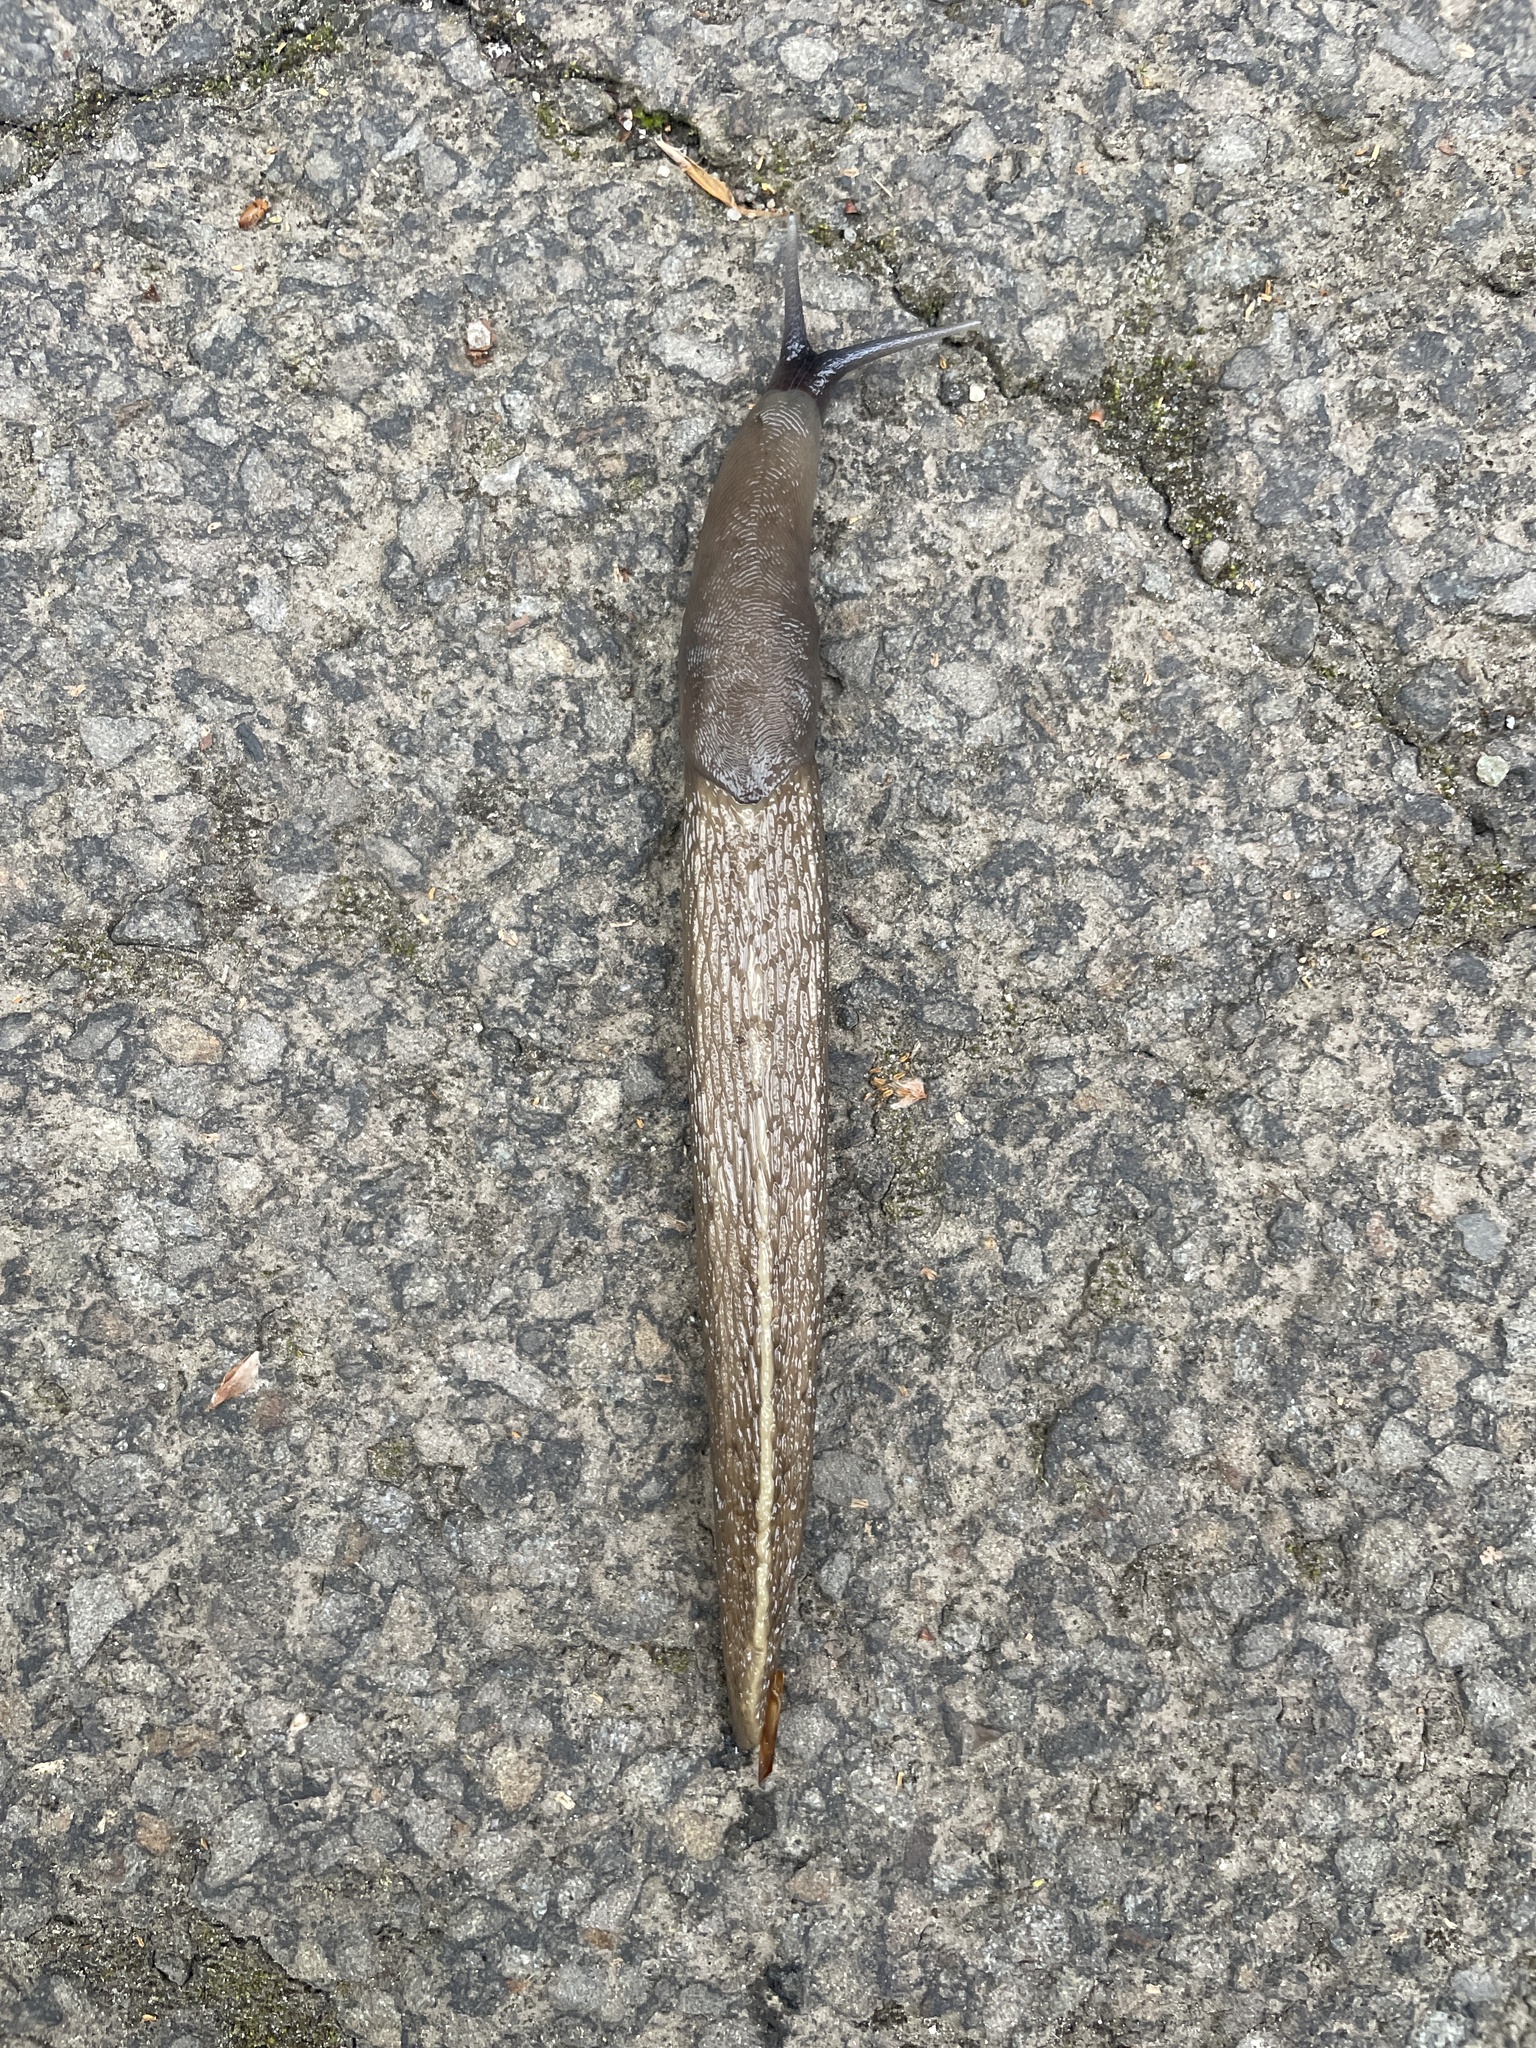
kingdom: Animalia
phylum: Mollusca
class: Gastropoda
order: Stylommatophora
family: Limacidae
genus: Limax
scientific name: Limax cinereoniger
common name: Ash-black slug
